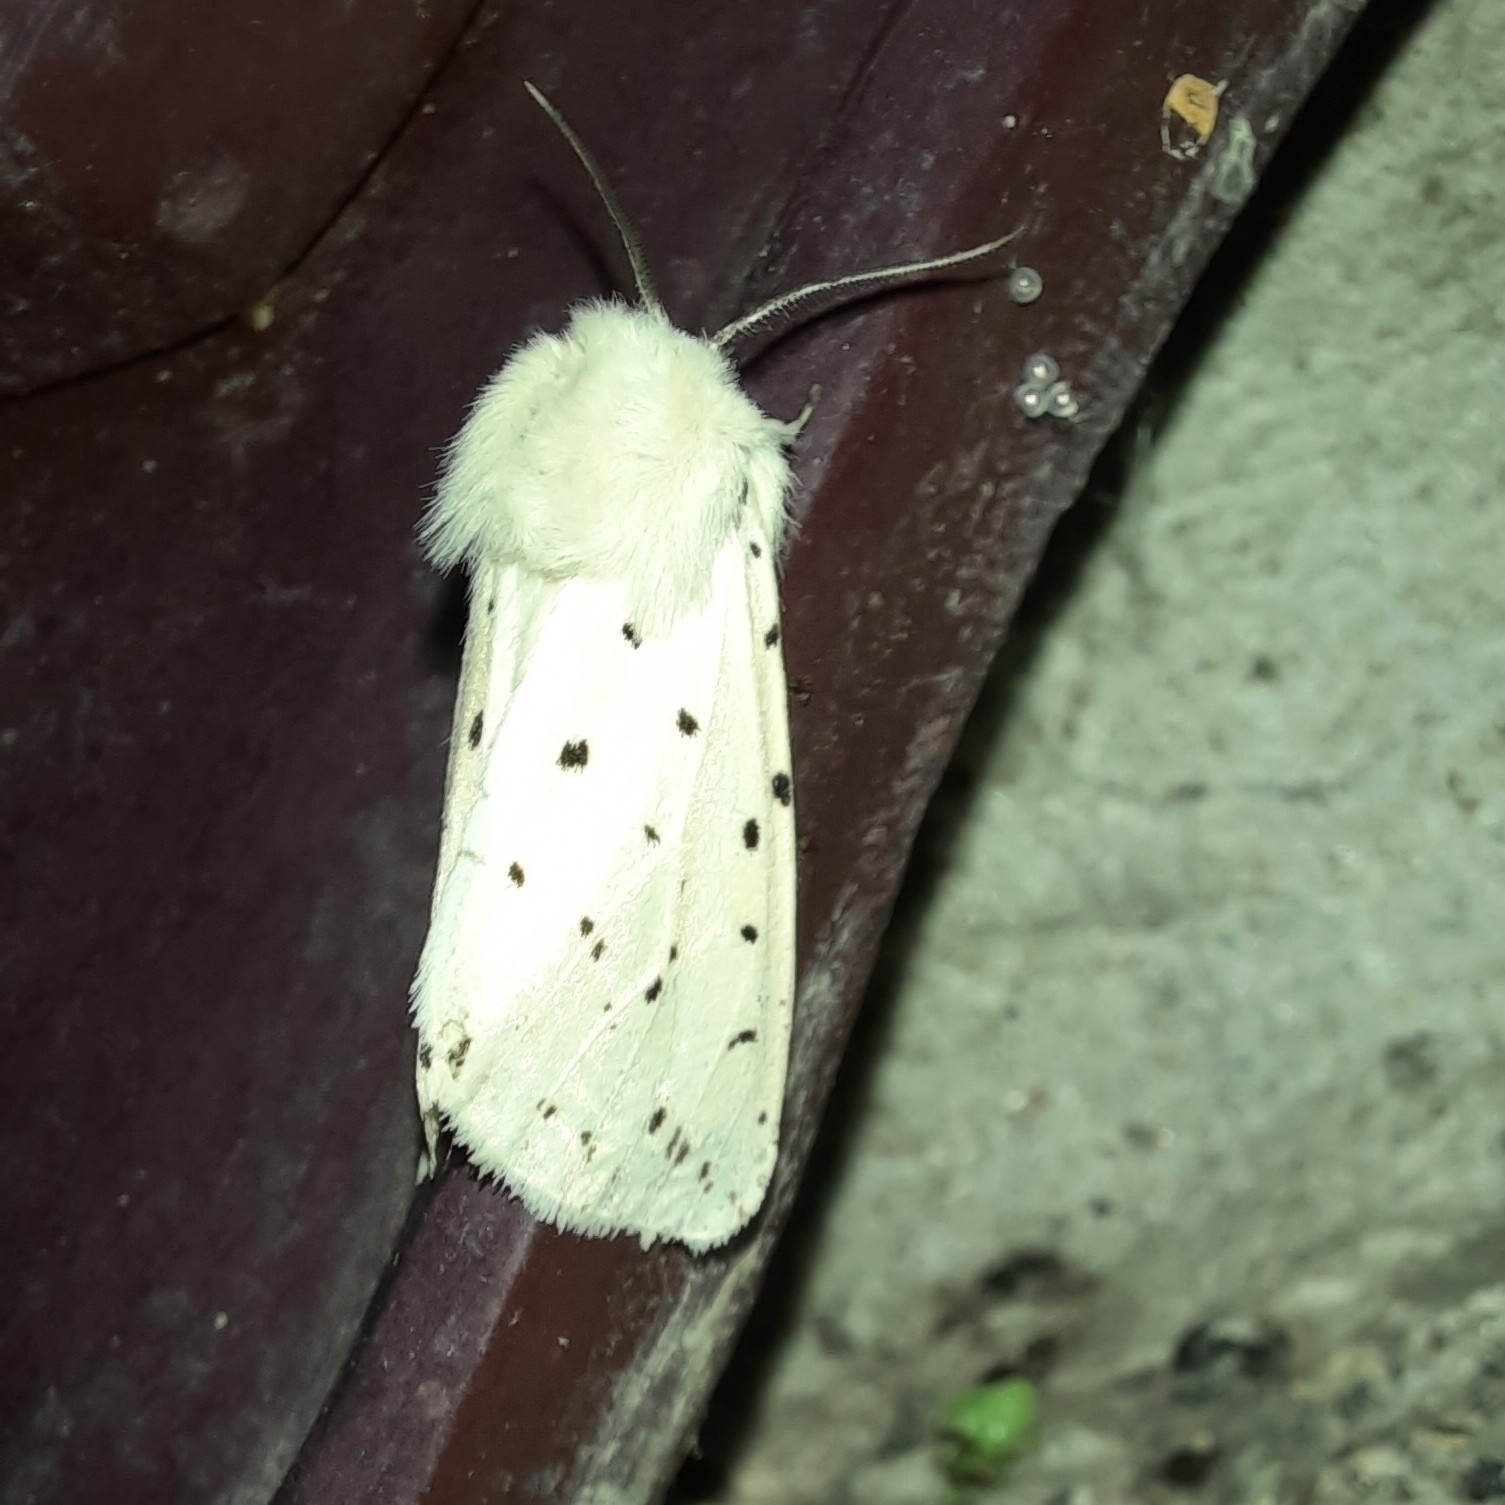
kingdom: Animalia
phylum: Arthropoda
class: Insecta
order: Lepidoptera
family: Erebidae
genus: Spilosoma
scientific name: Spilosoma lubricipeda
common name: White ermine
